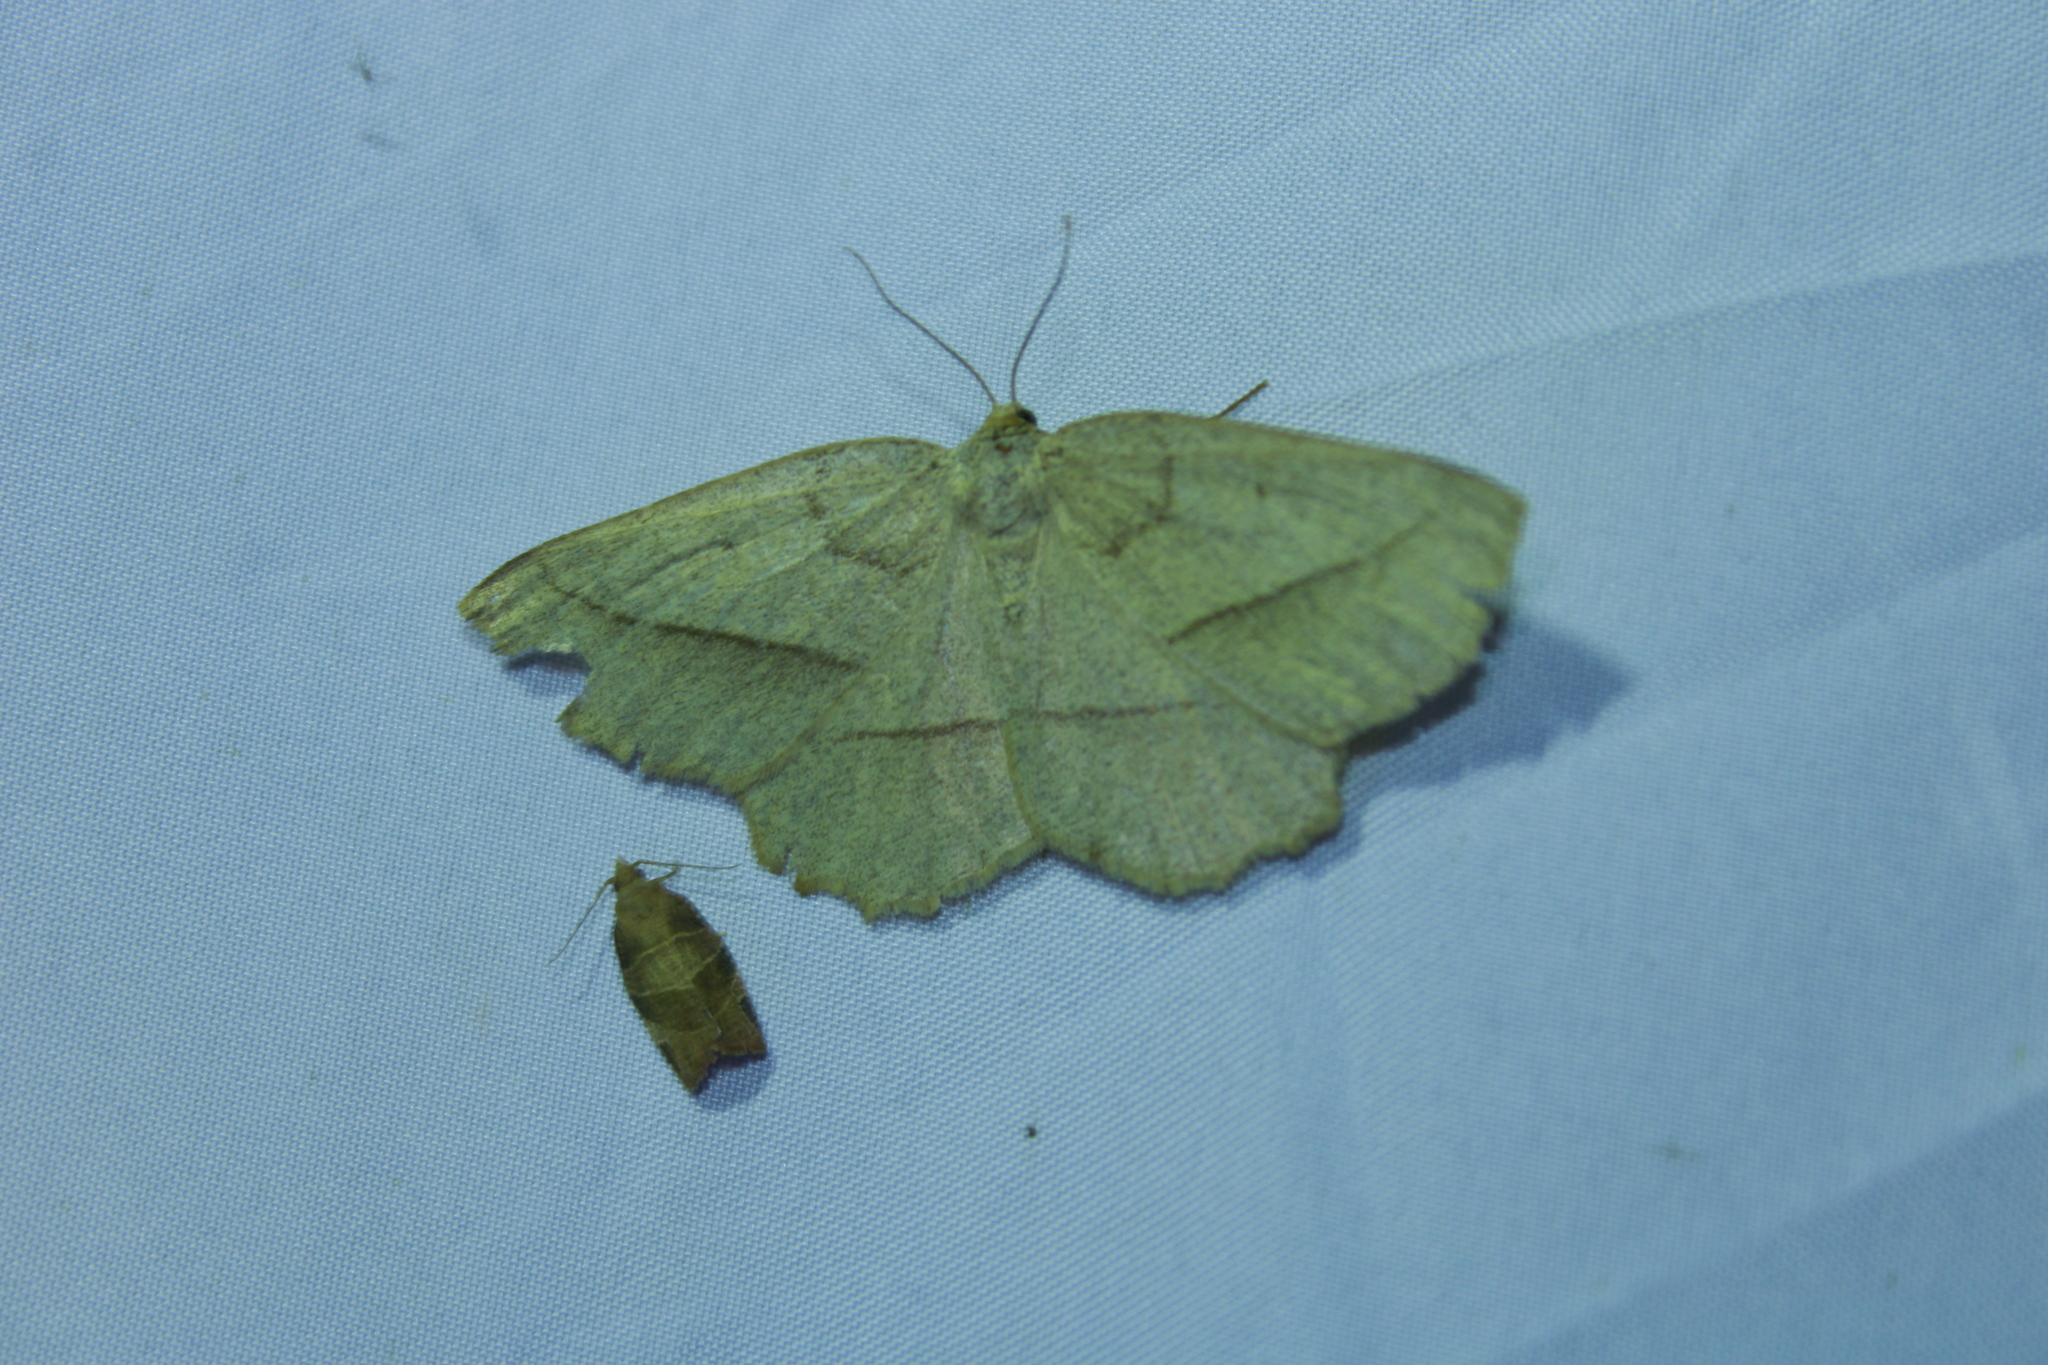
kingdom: Animalia
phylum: Arthropoda
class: Insecta
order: Lepidoptera
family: Geometridae
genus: Euchlaena
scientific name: Euchlaena irraria
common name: Least-marked euchlaena
